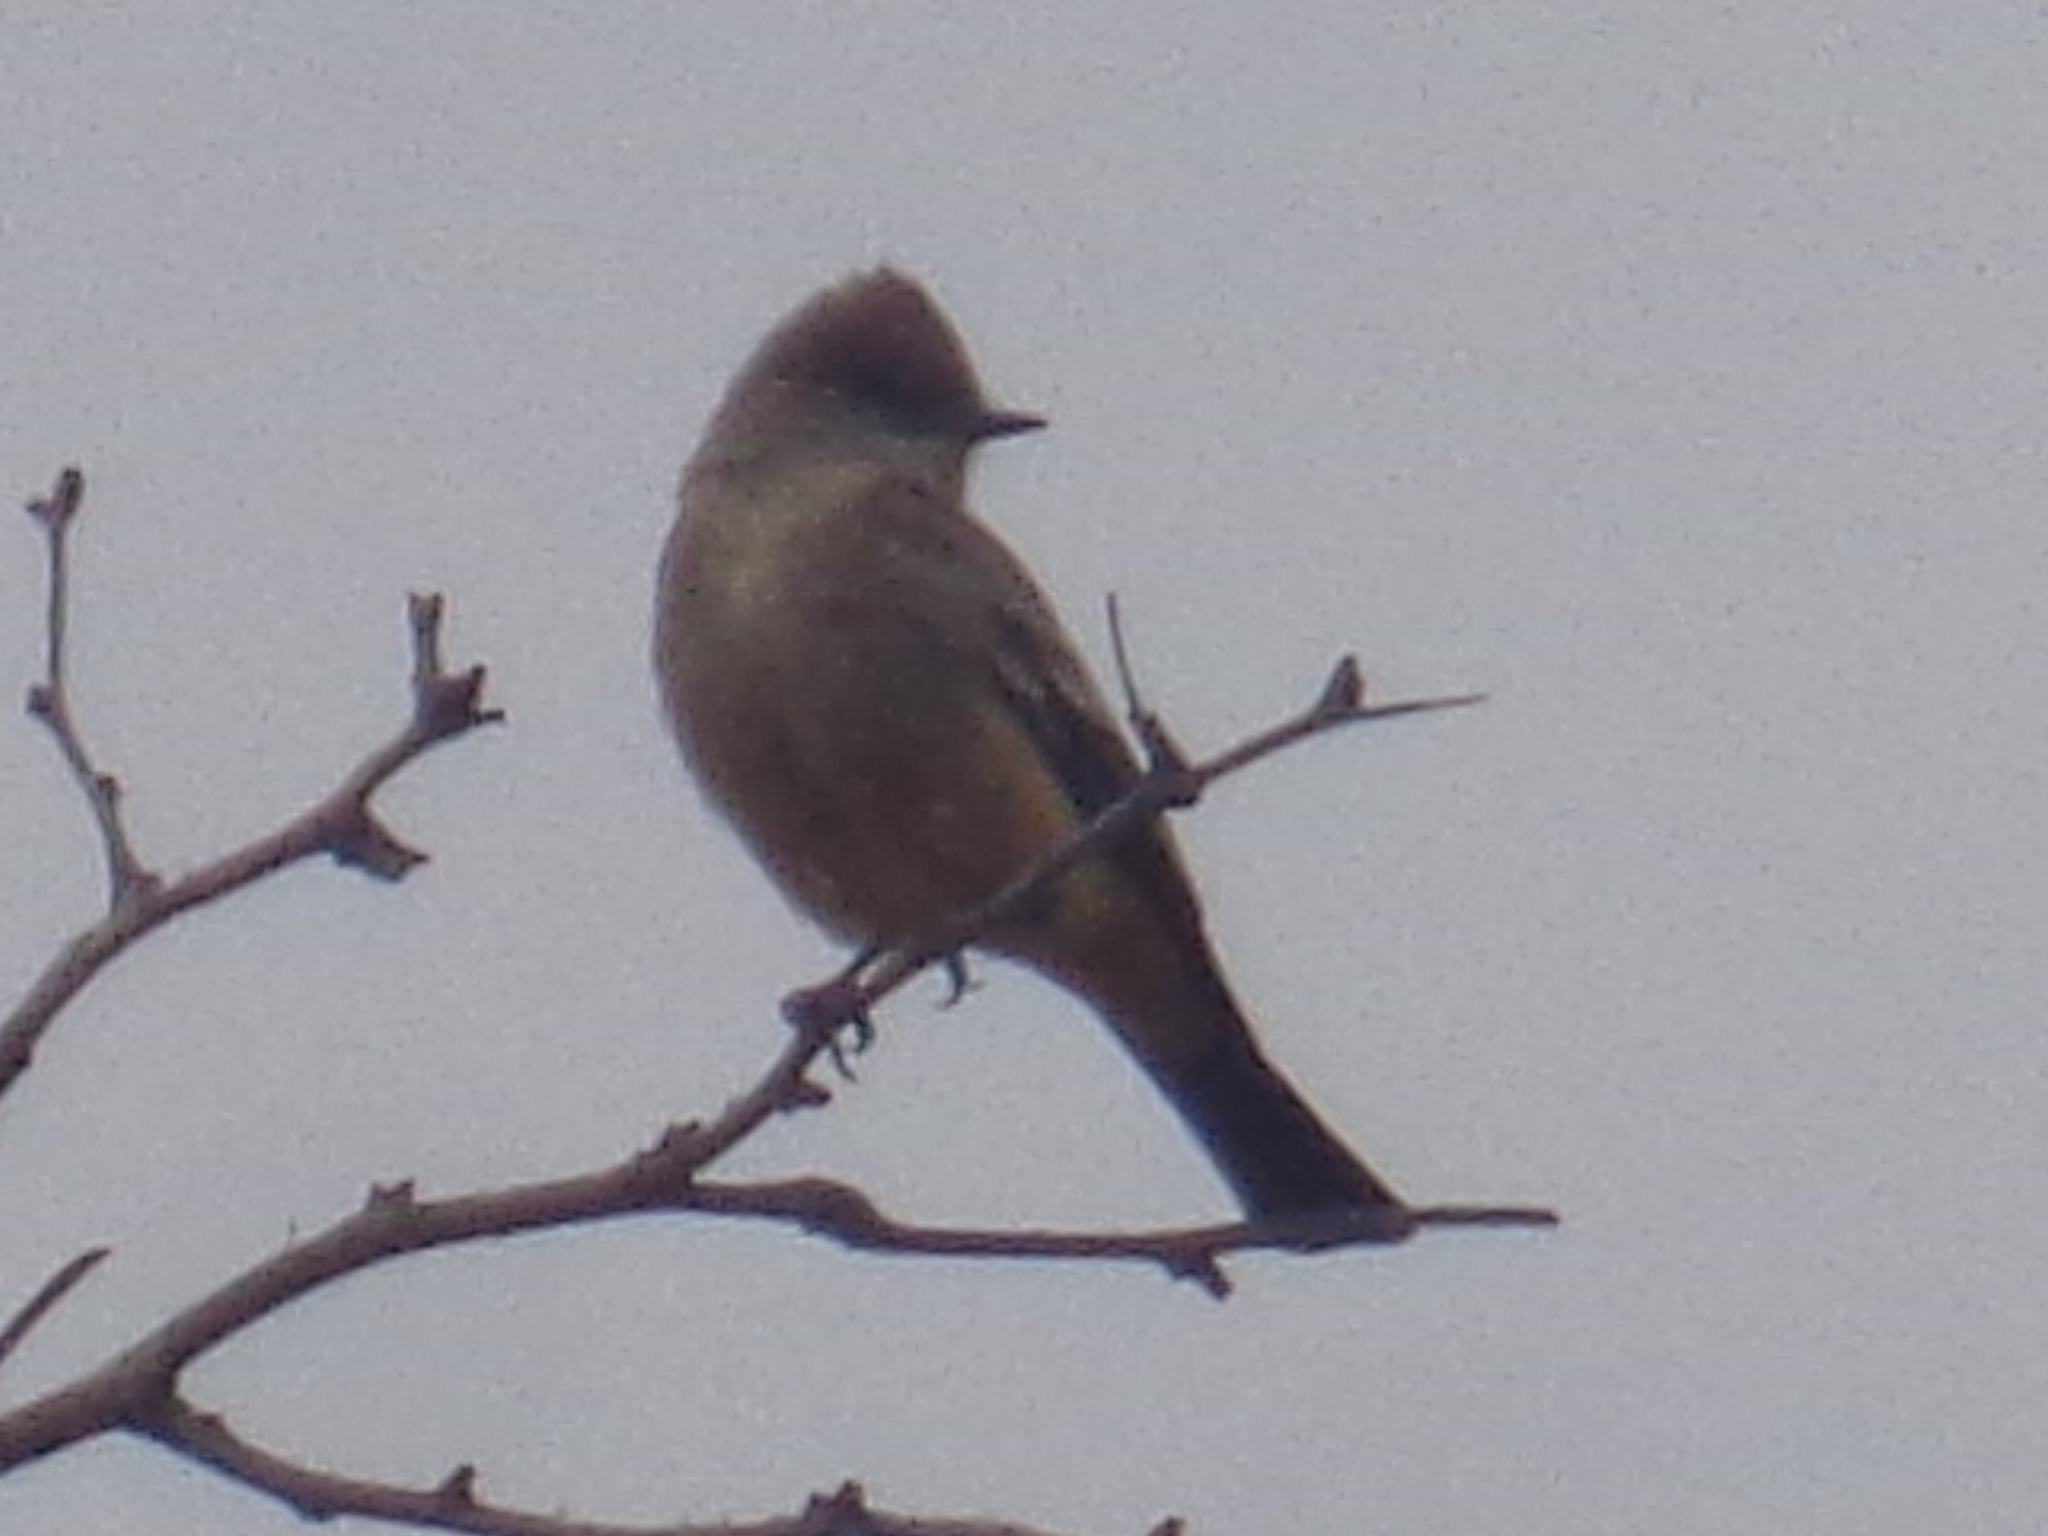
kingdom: Animalia
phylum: Chordata
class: Aves
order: Passeriformes
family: Tyrannidae
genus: Sayornis
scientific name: Sayornis saya
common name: Say's phoebe
